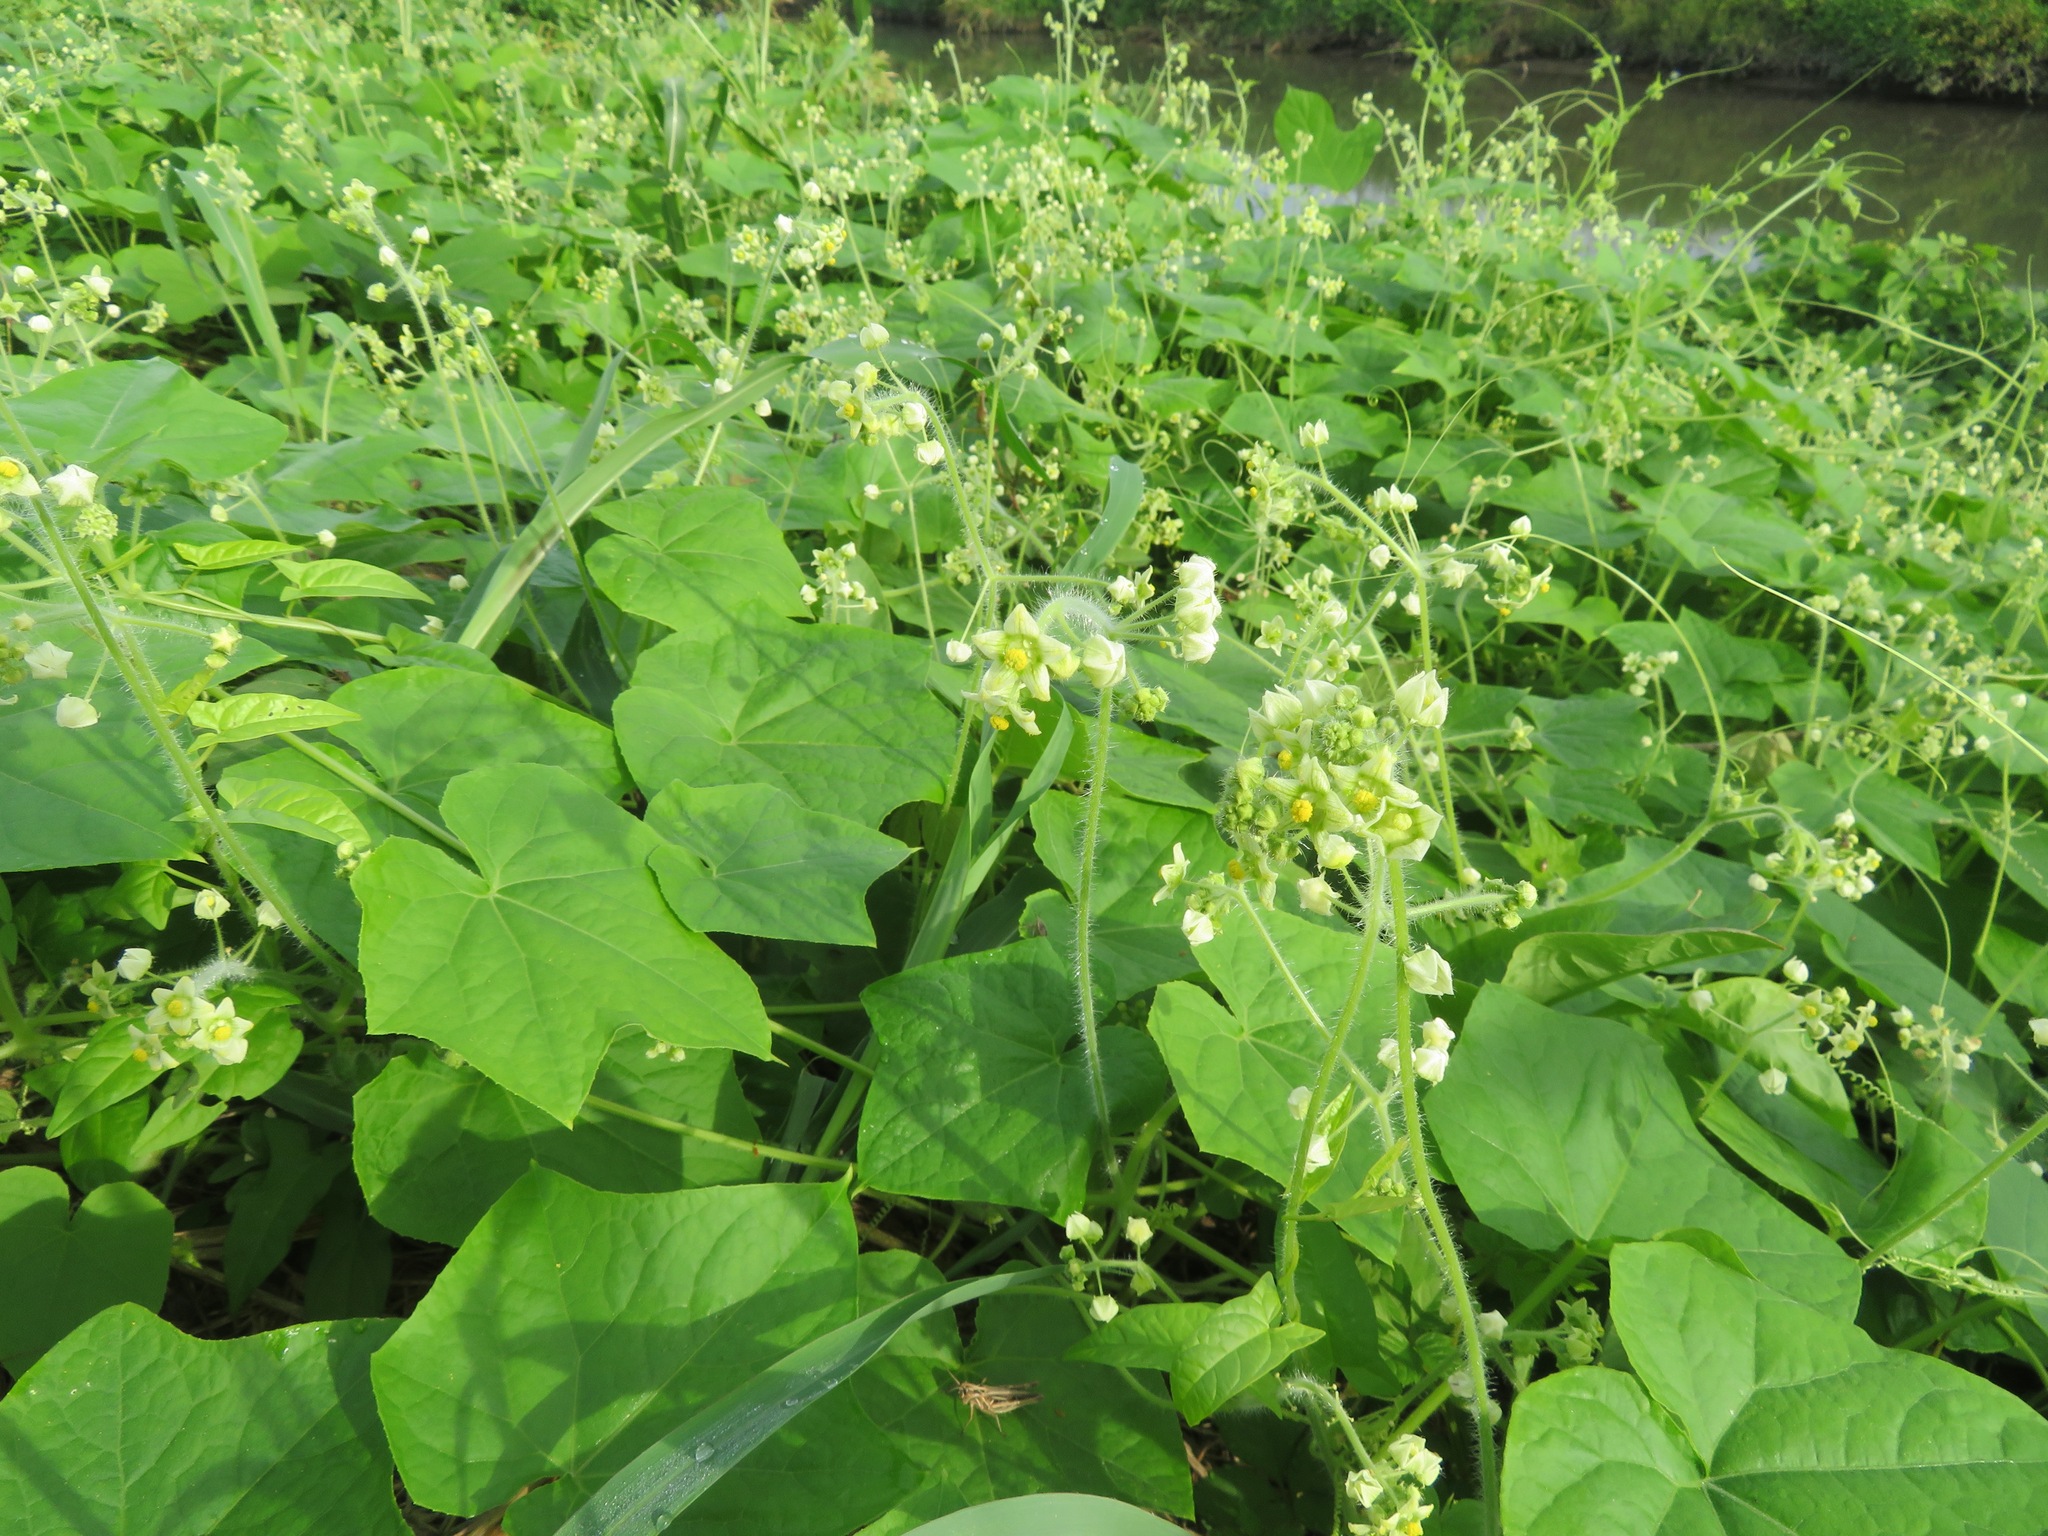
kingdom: Plantae
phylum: Tracheophyta
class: Magnoliopsida
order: Cucurbitales
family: Cucurbitaceae
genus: Sicyos
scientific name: Sicyos angulatus
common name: Angled burr cucumber
